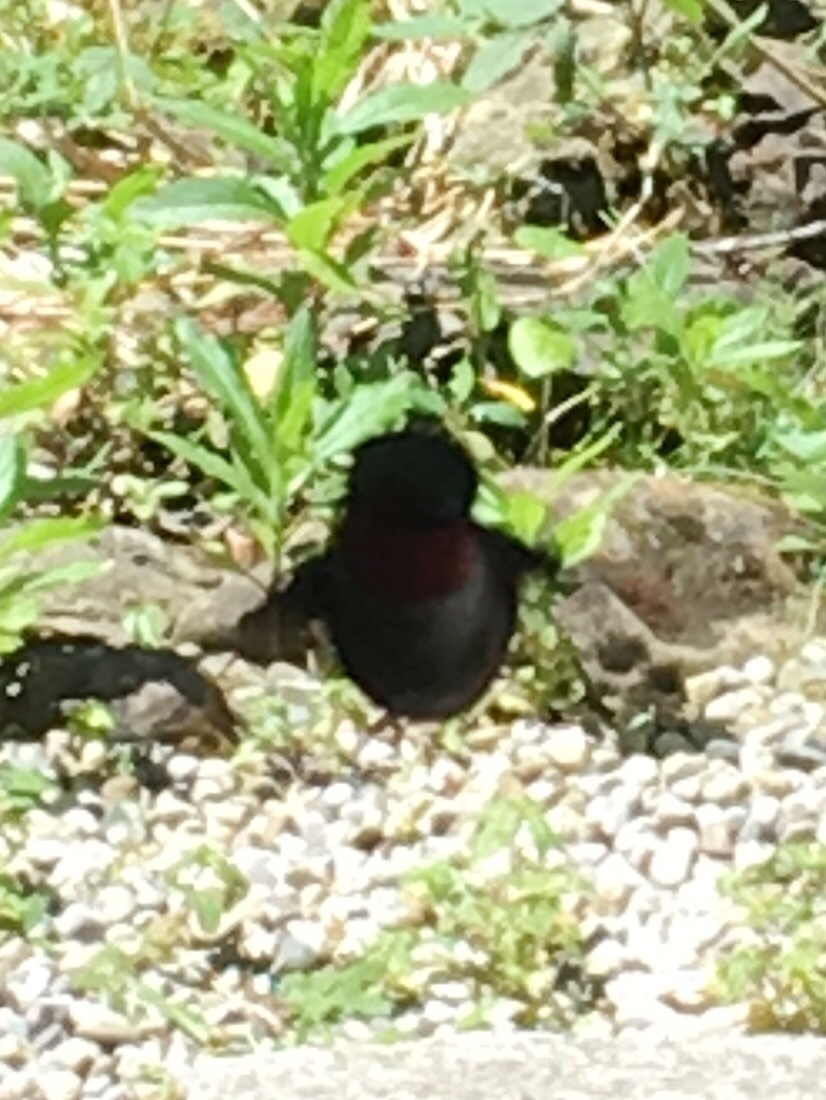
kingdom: Animalia
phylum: Chordata
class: Aves
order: Apodiformes
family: Trochilidae
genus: Archilochus
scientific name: Archilochus colubris
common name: Ruby-throated hummingbird
